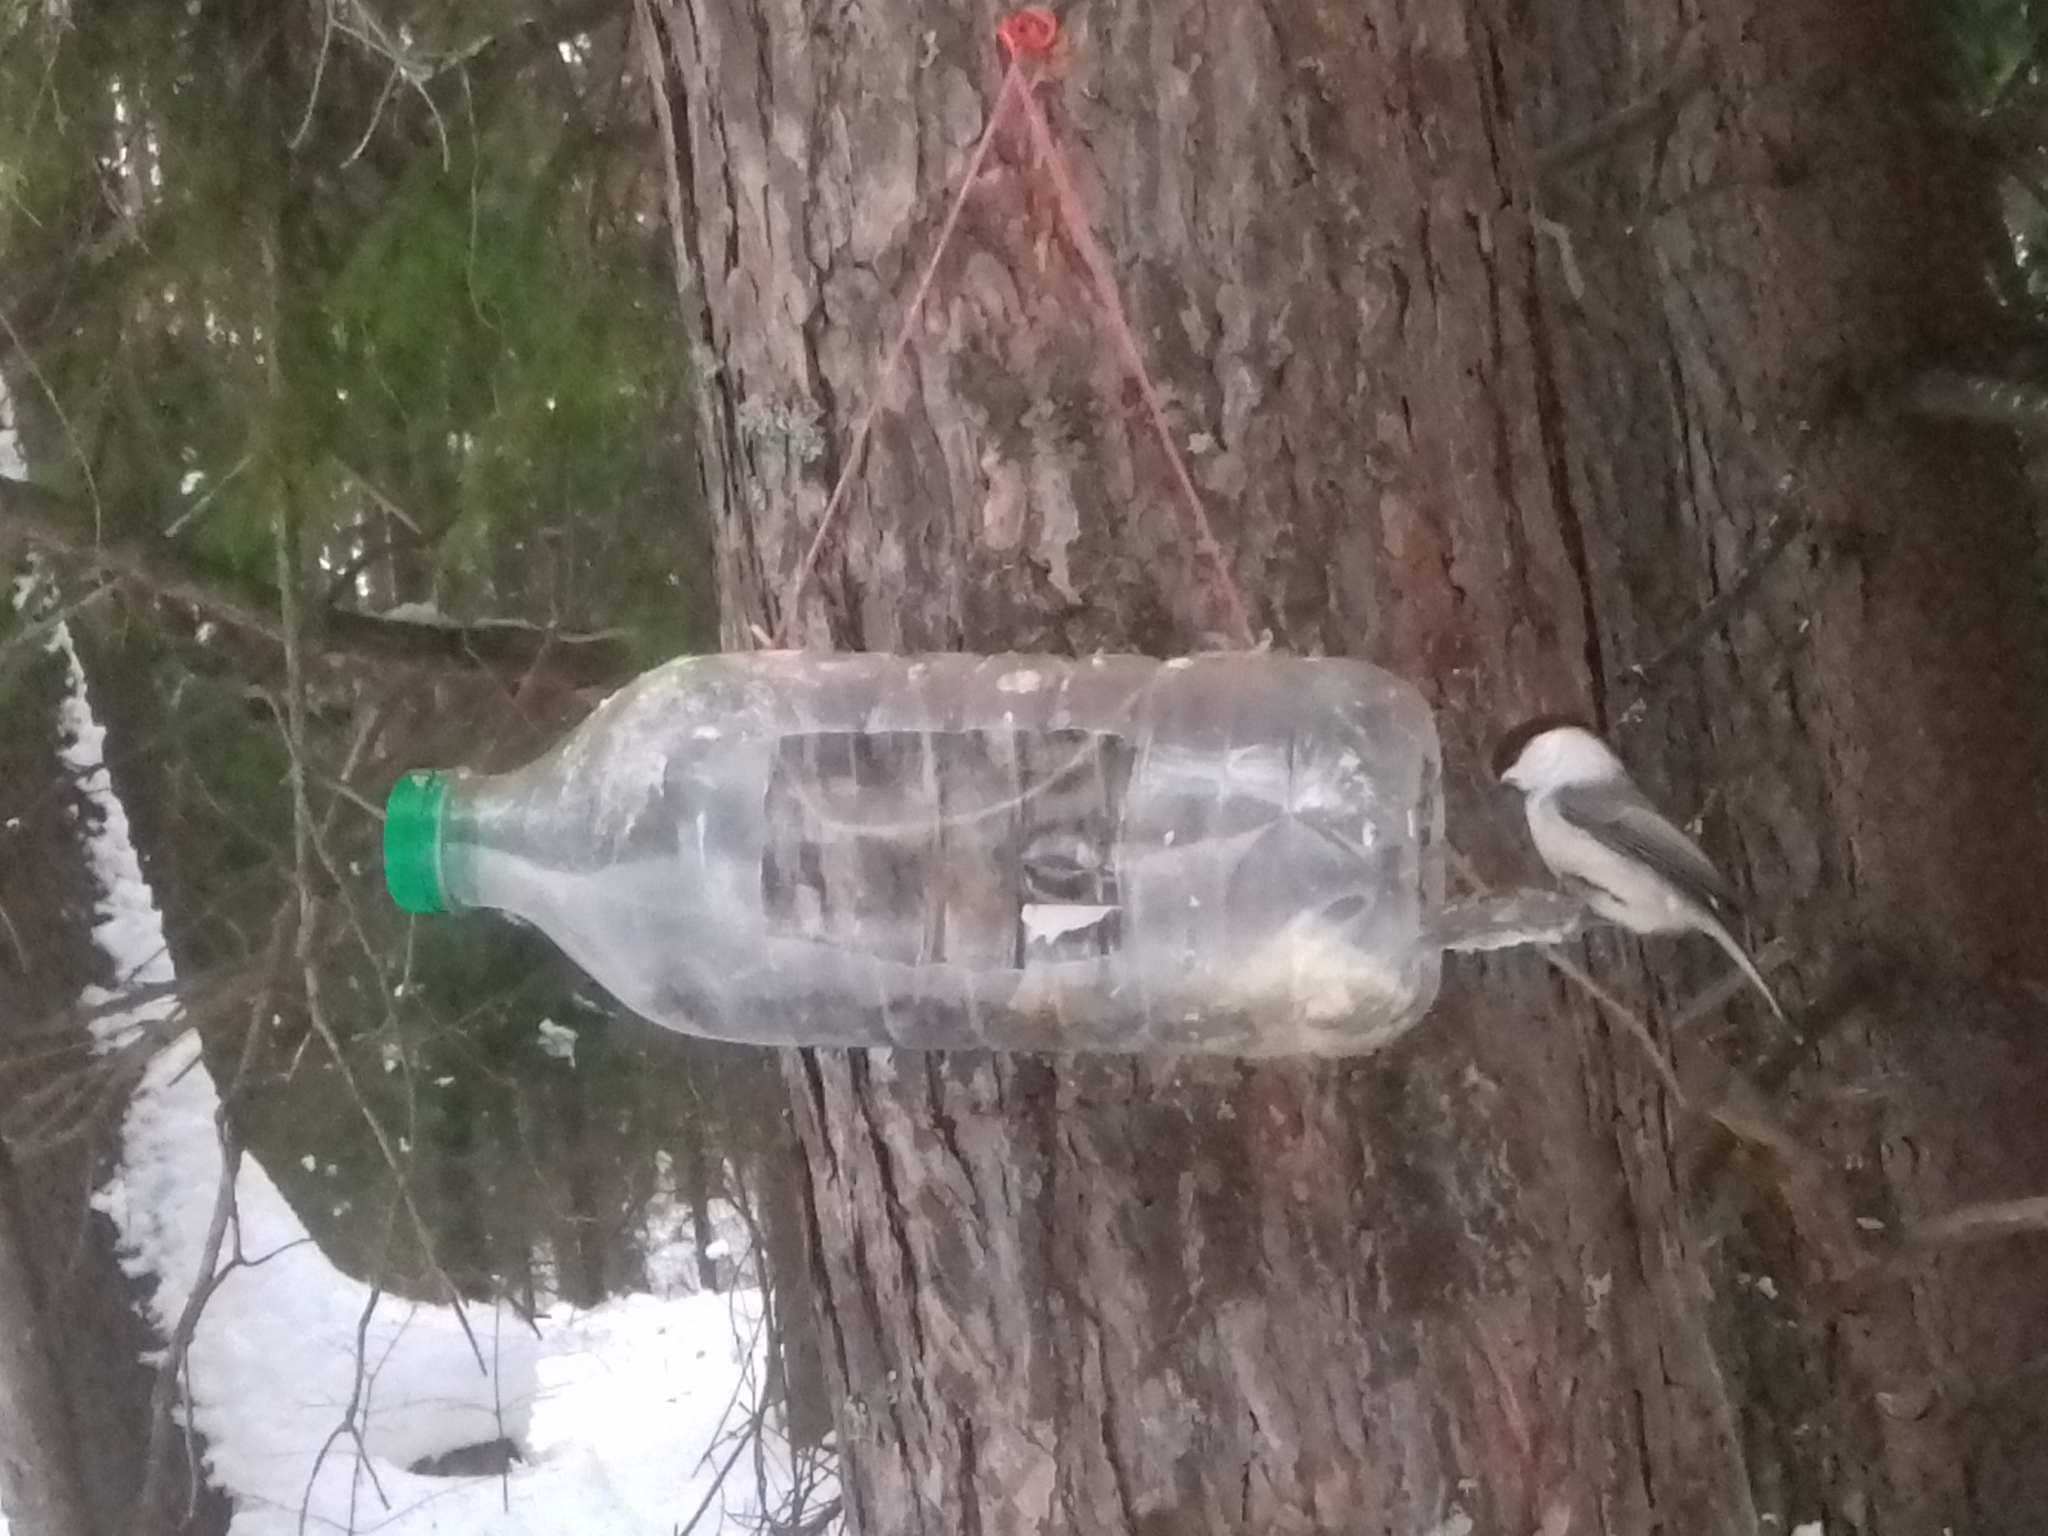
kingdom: Animalia
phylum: Chordata
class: Aves
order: Passeriformes
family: Paridae
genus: Poecile
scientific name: Poecile montanus
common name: Willow tit
